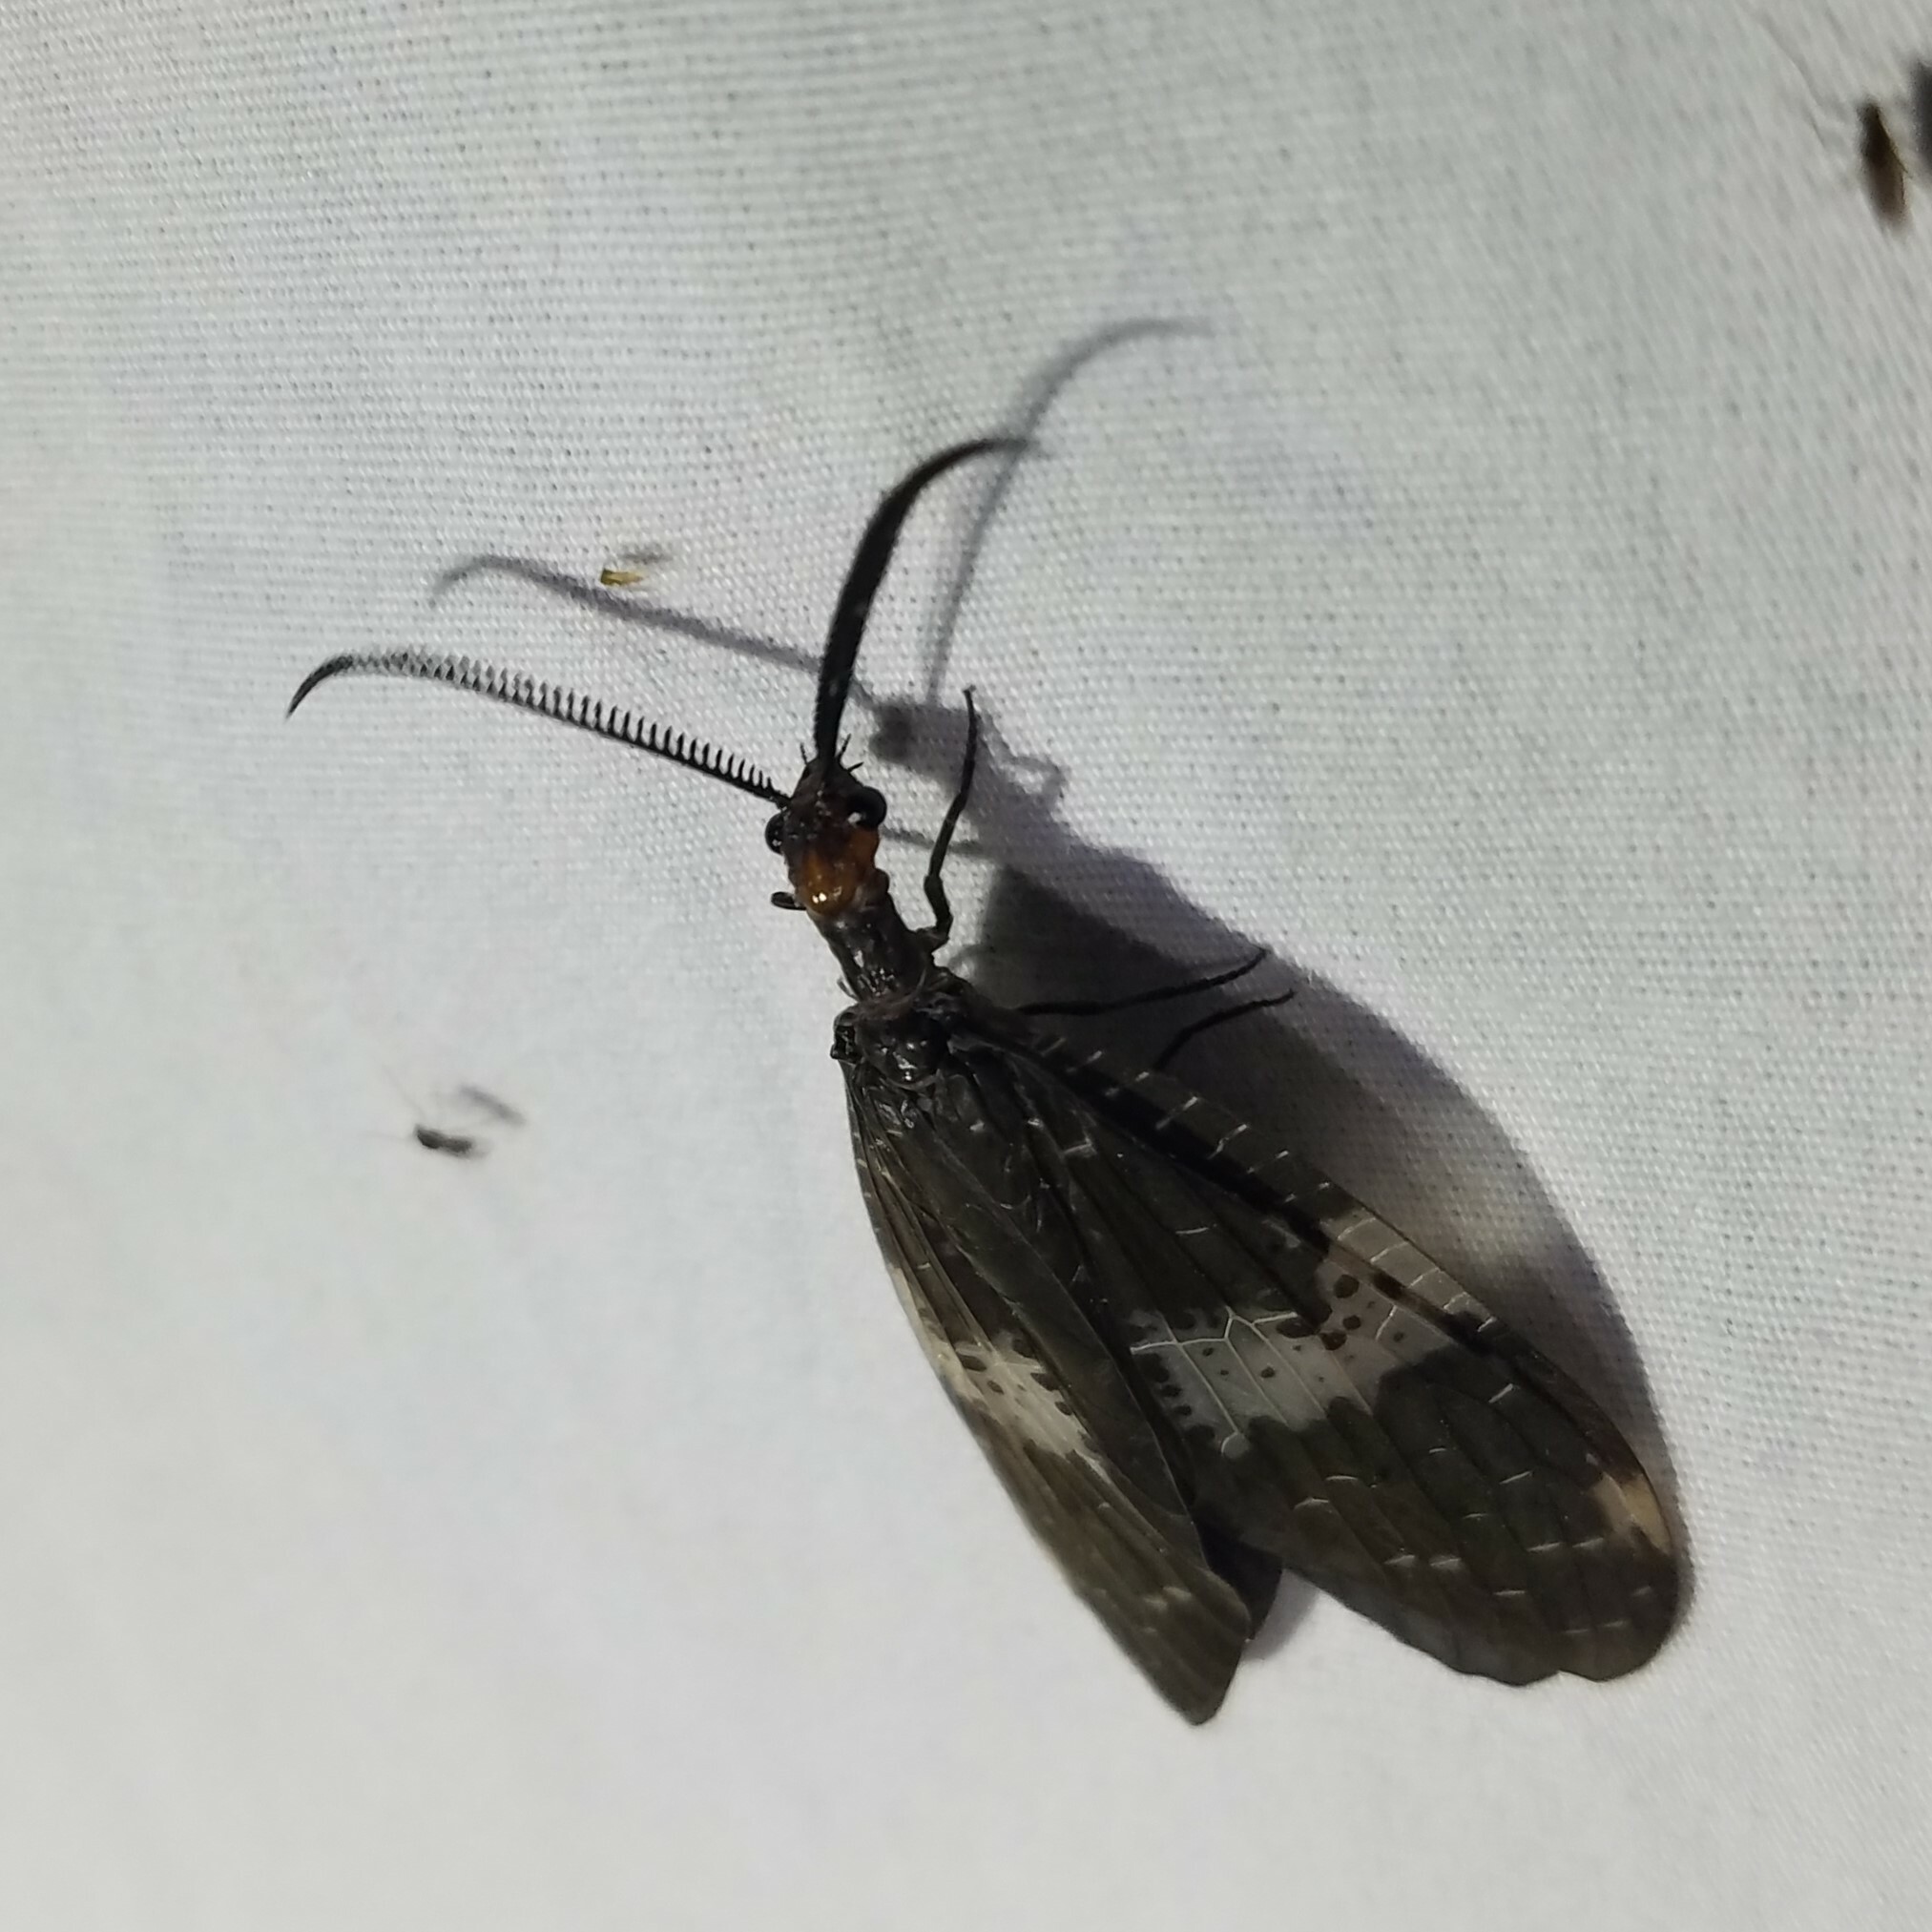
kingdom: Animalia
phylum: Arthropoda
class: Insecta
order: Megaloptera
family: Corydalidae
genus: Nigronia
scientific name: Nigronia fasciata
